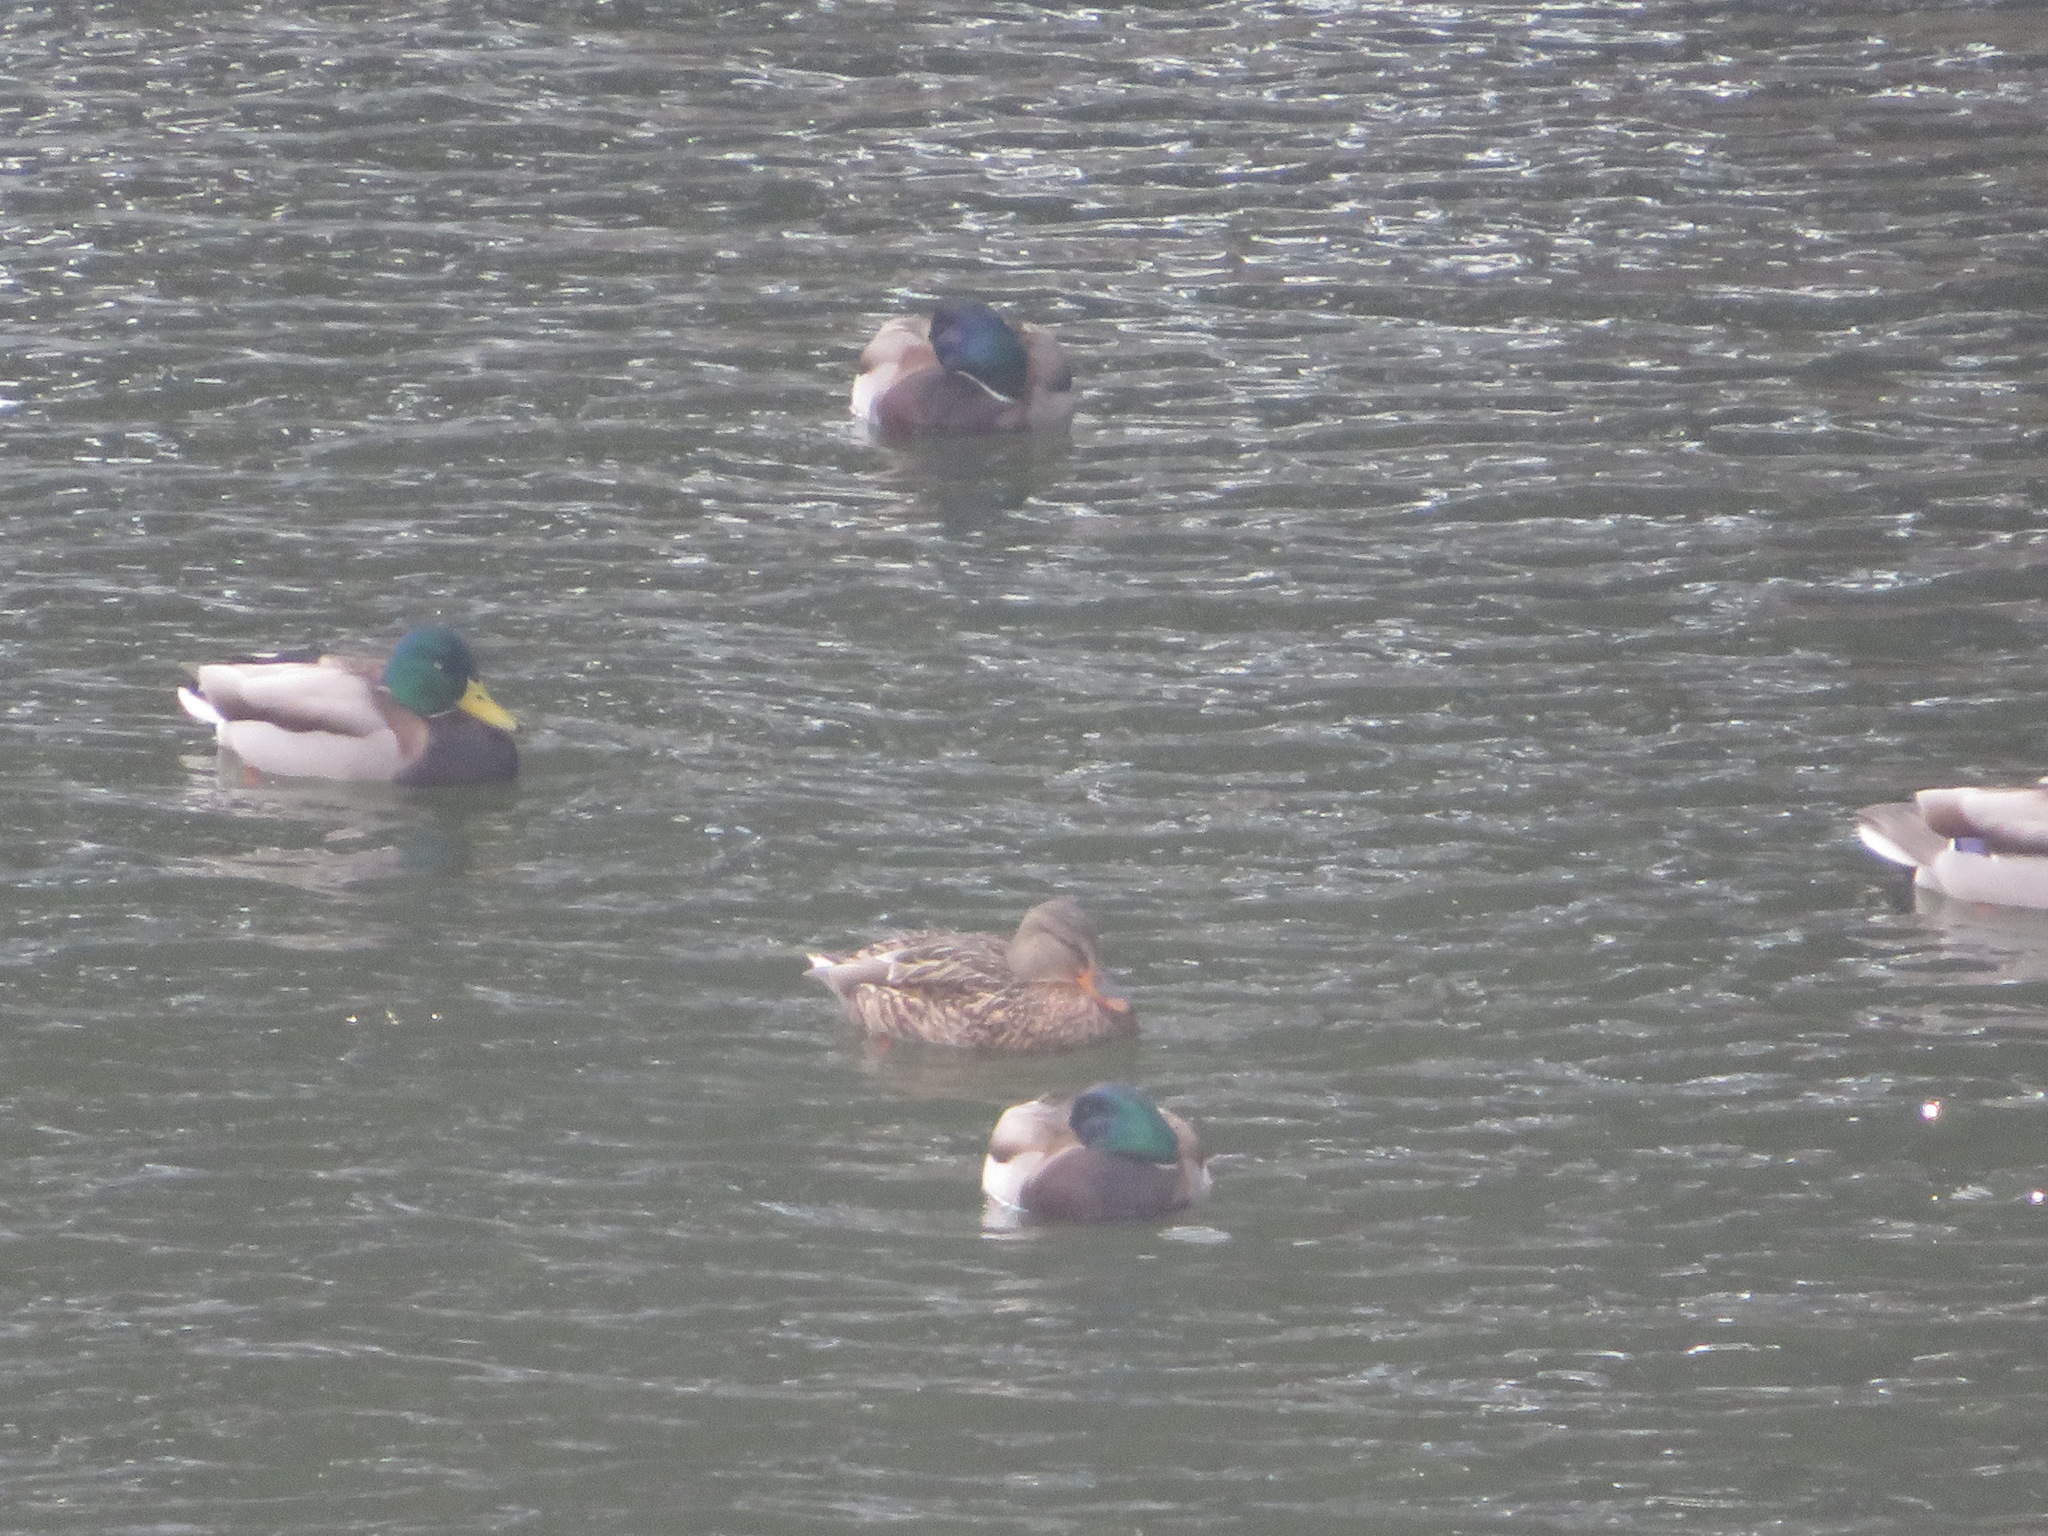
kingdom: Animalia
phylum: Chordata
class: Aves
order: Anseriformes
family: Anatidae
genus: Anas
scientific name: Anas platyrhynchos
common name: Mallard
